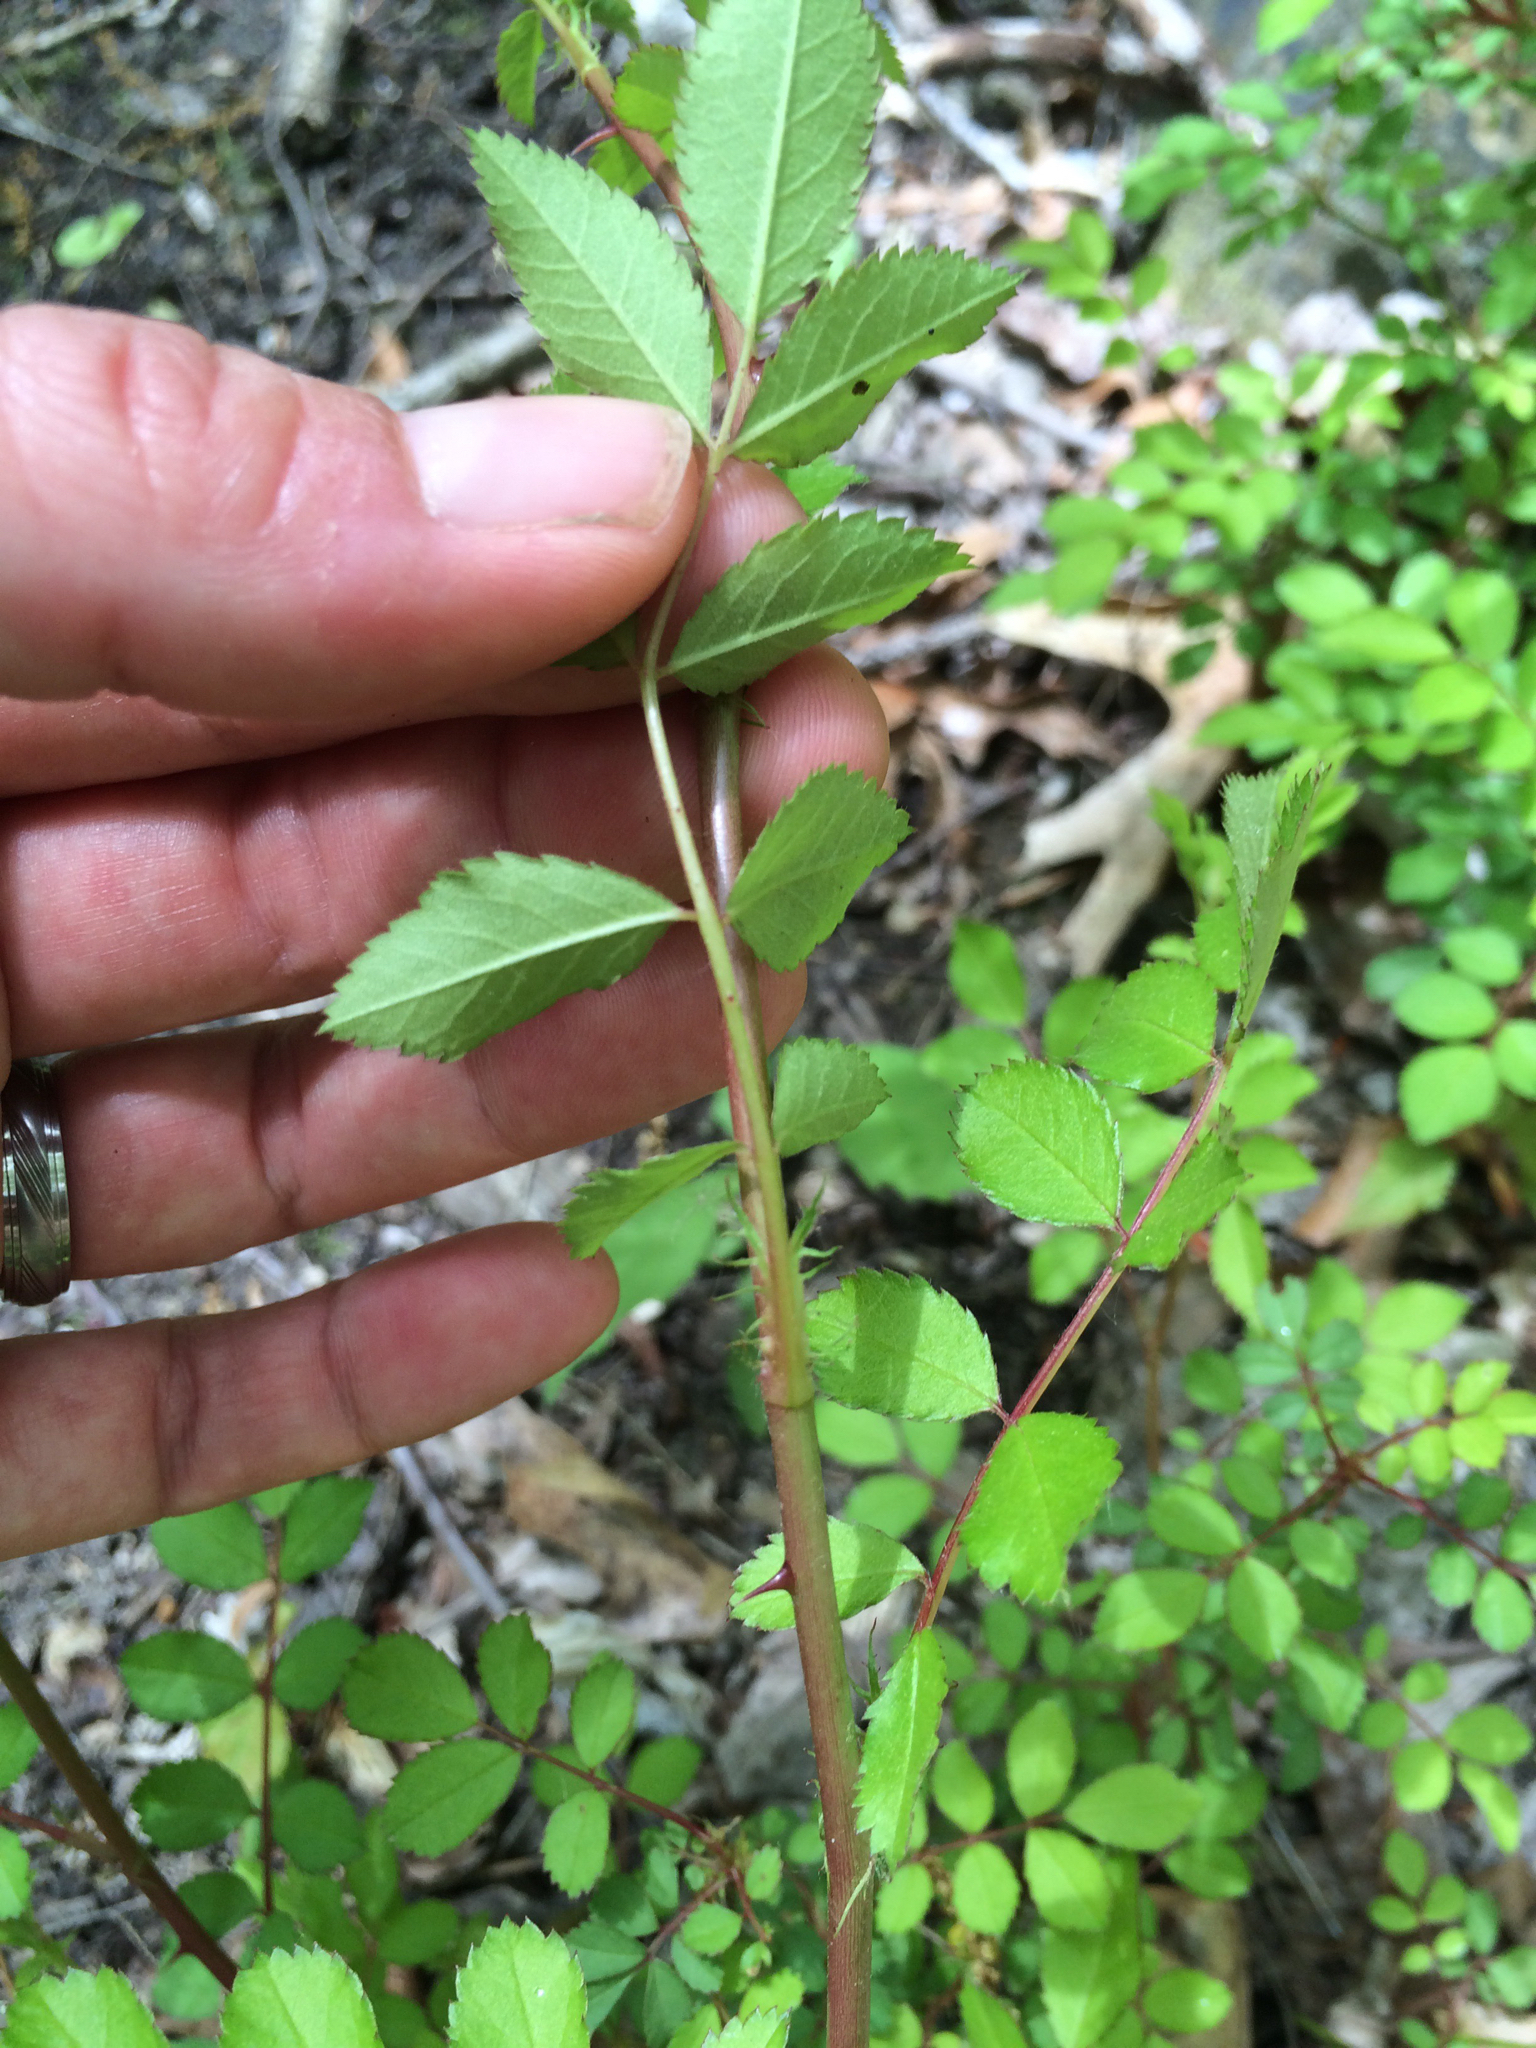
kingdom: Plantae
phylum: Tracheophyta
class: Magnoliopsida
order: Rosales
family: Rosaceae
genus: Rosa
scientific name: Rosa multiflora
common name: Multiflora rose
